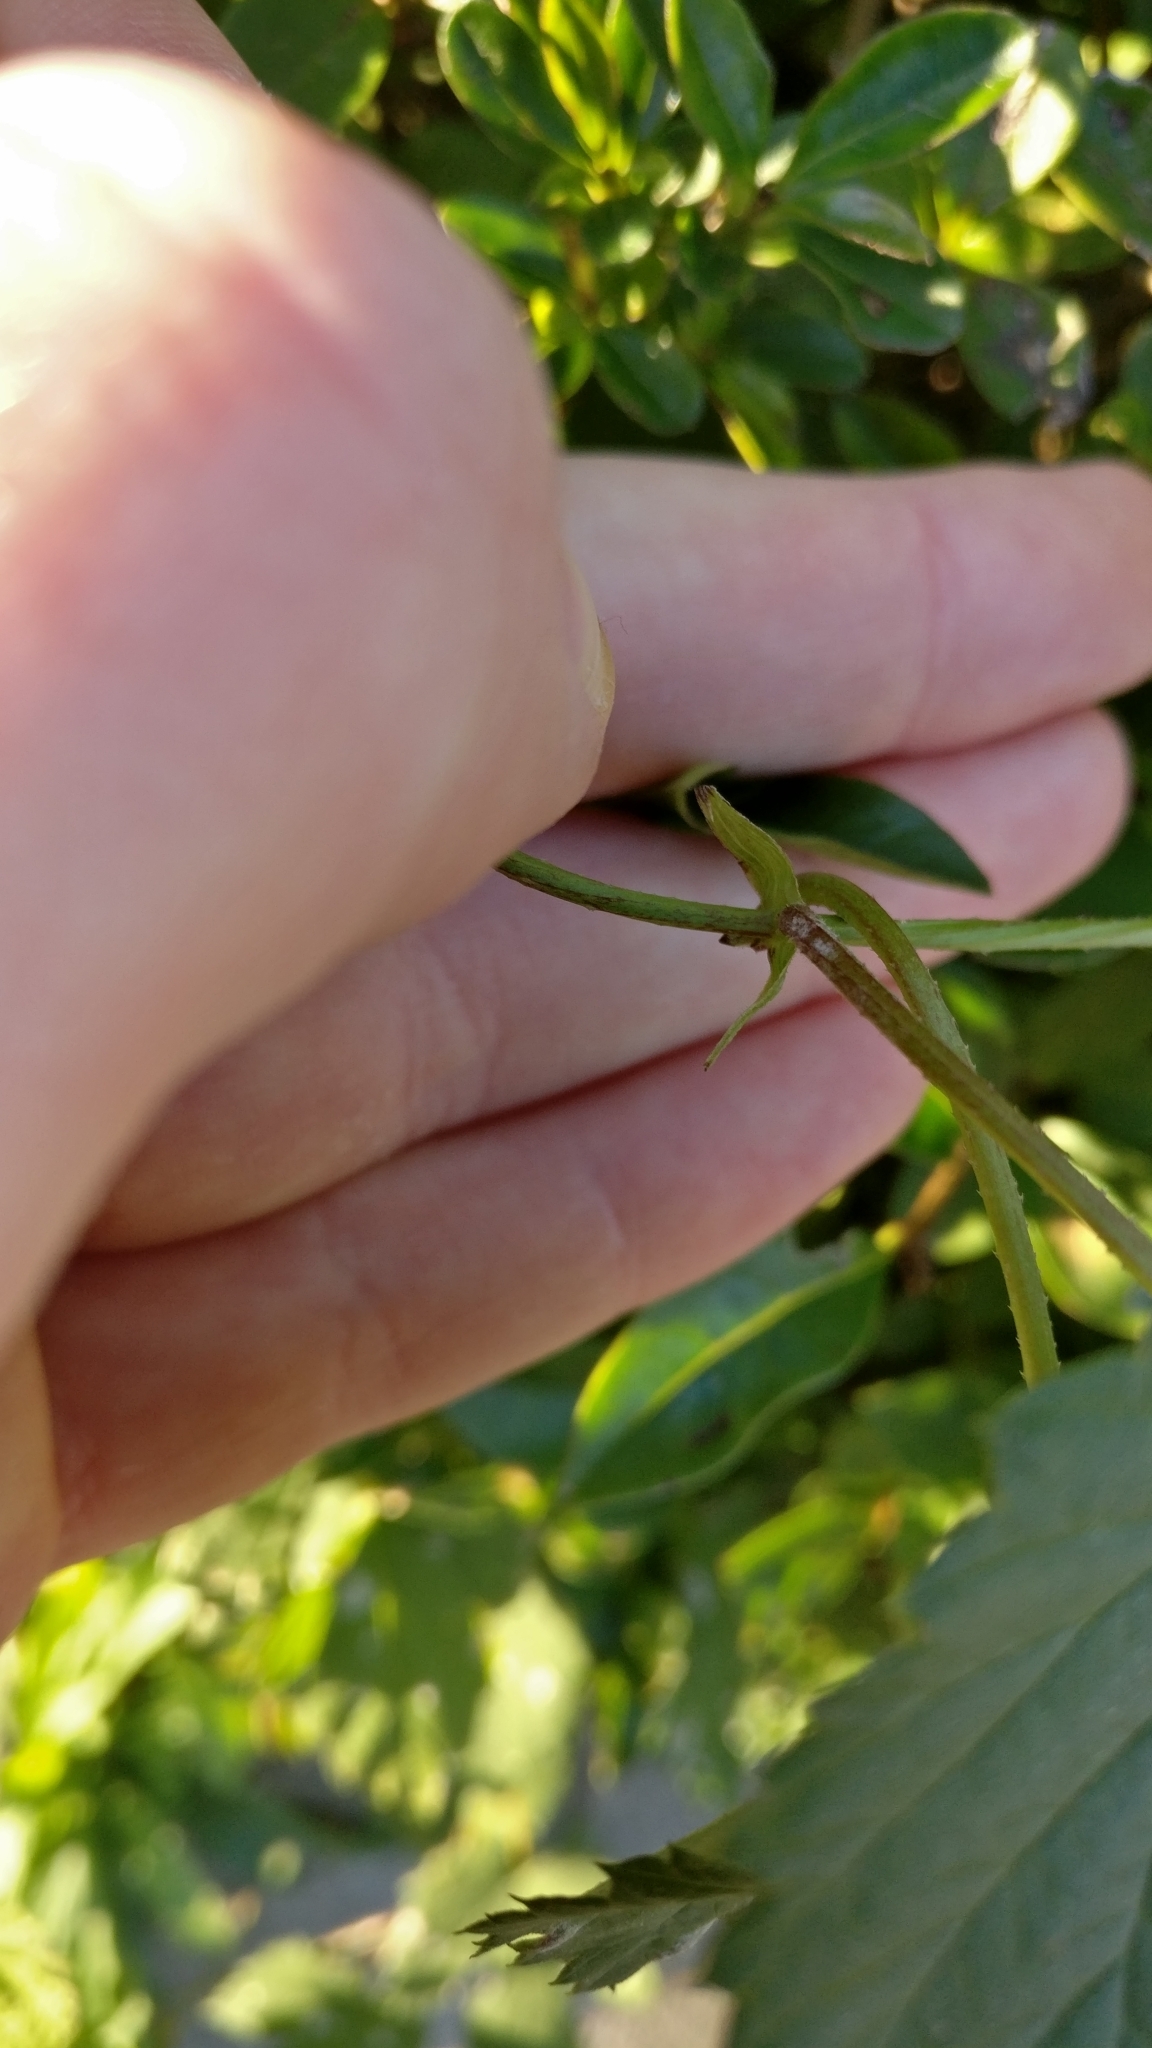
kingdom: Plantae
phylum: Tracheophyta
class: Magnoliopsida
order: Rosales
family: Cannabaceae
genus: Humulus
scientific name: Humulus lupulus
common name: Hop
